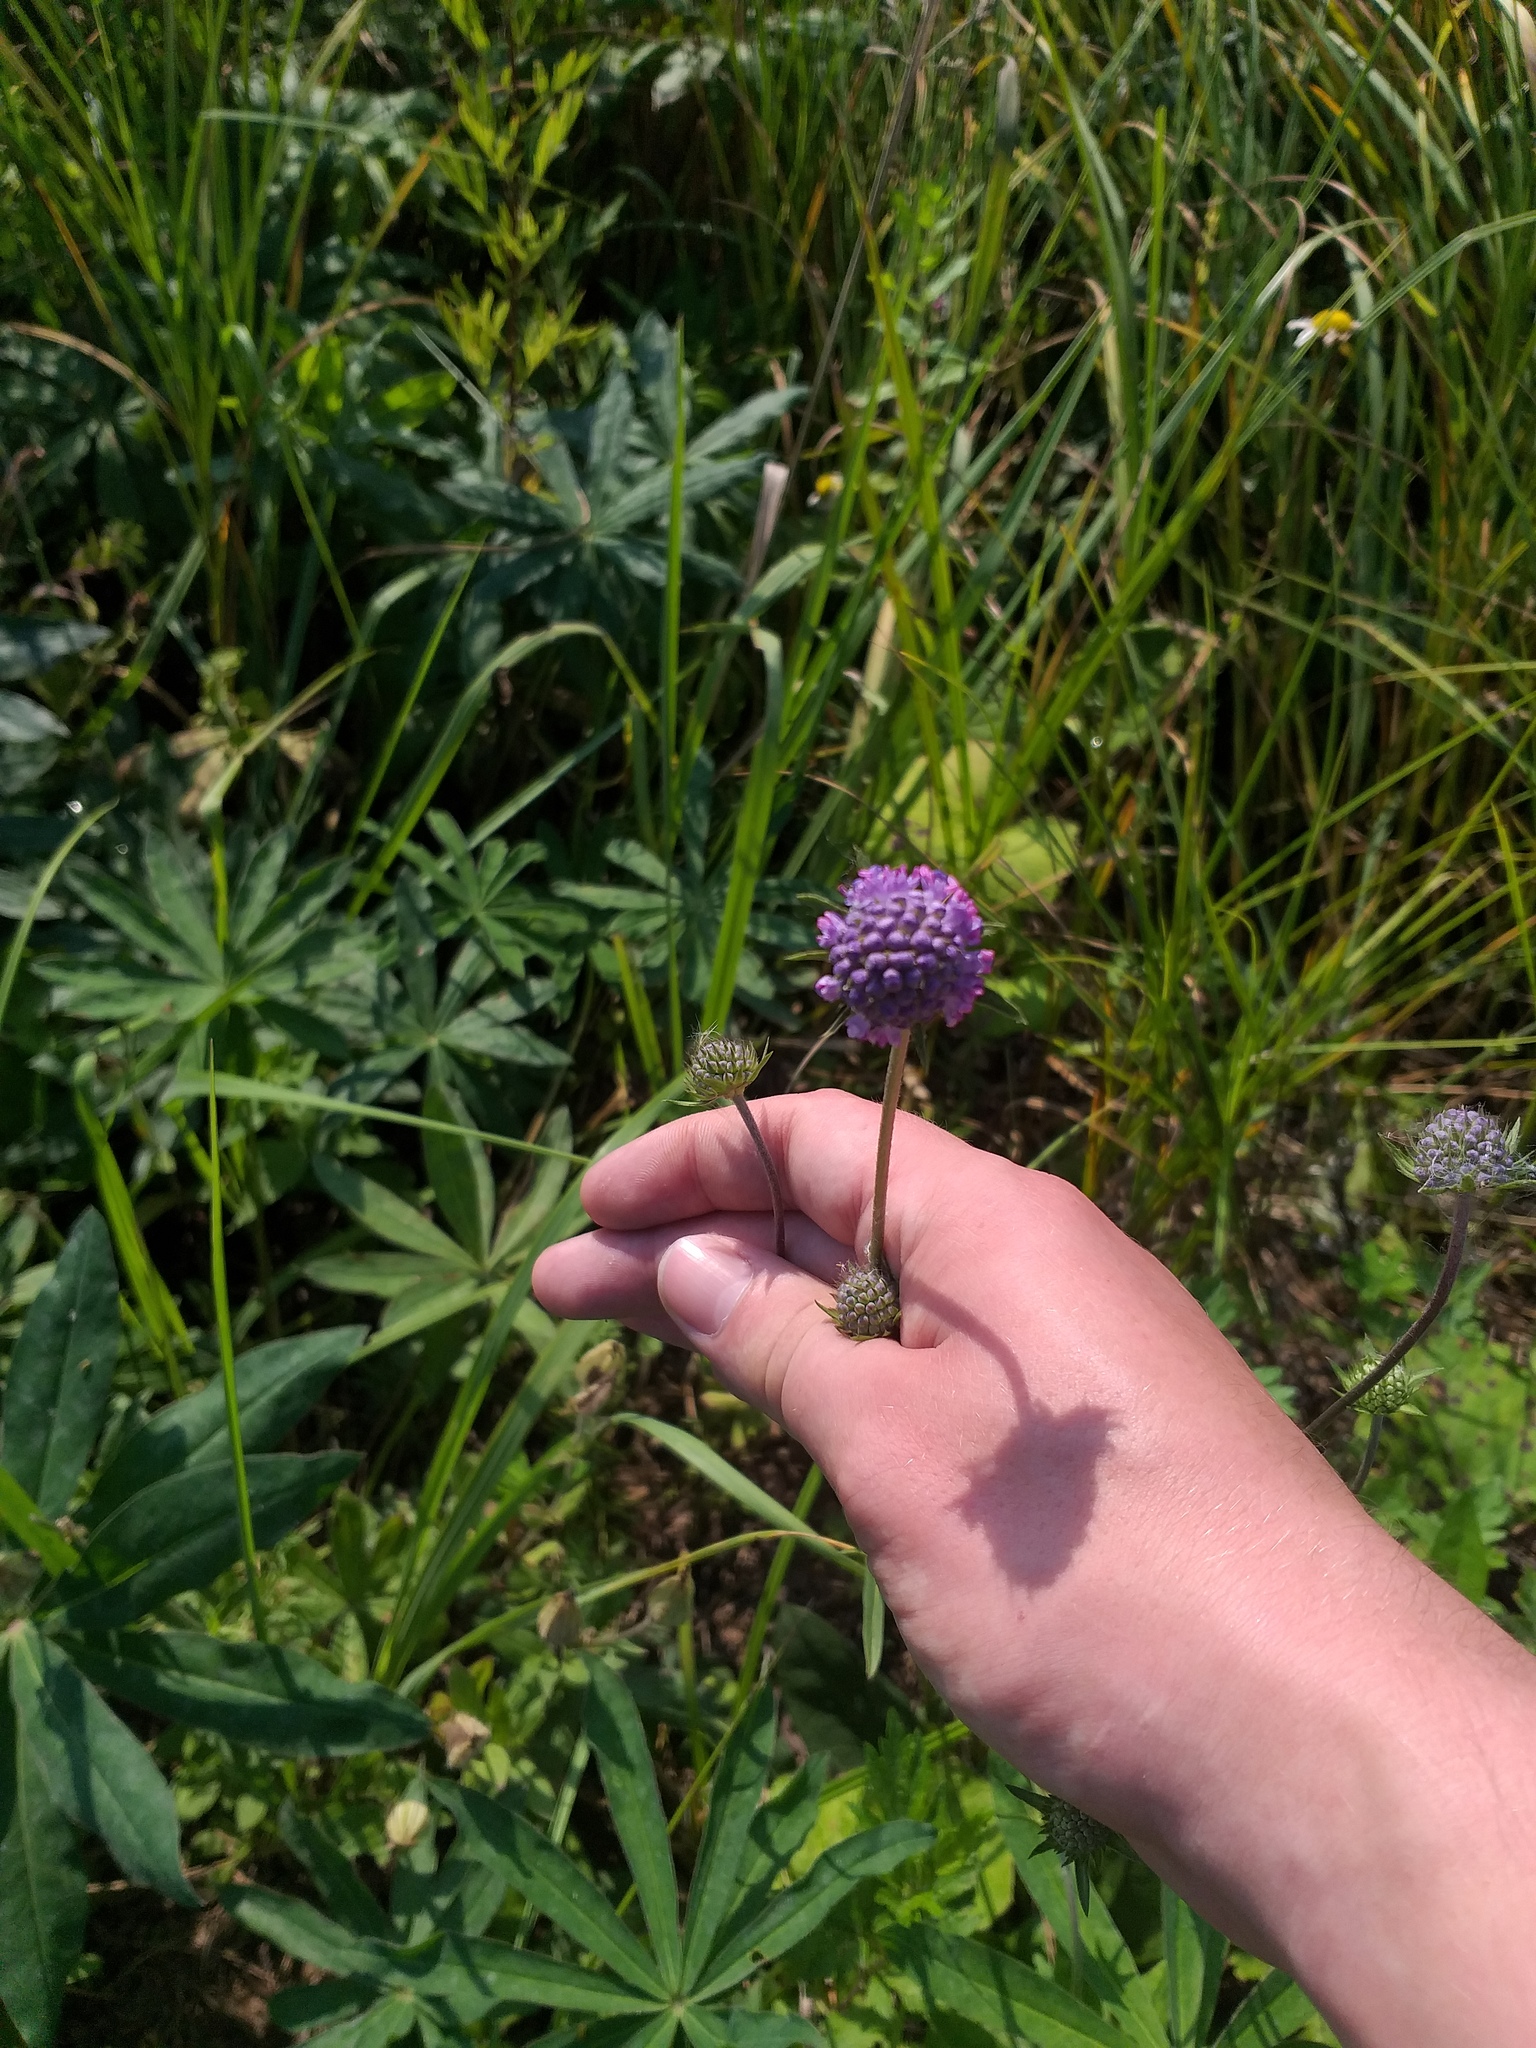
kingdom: Plantae
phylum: Tracheophyta
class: Magnoliopsida
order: Dipsacales
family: Caprifoliaceae
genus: Knautia
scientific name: Knautia arvensis
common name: Field scabiosa
